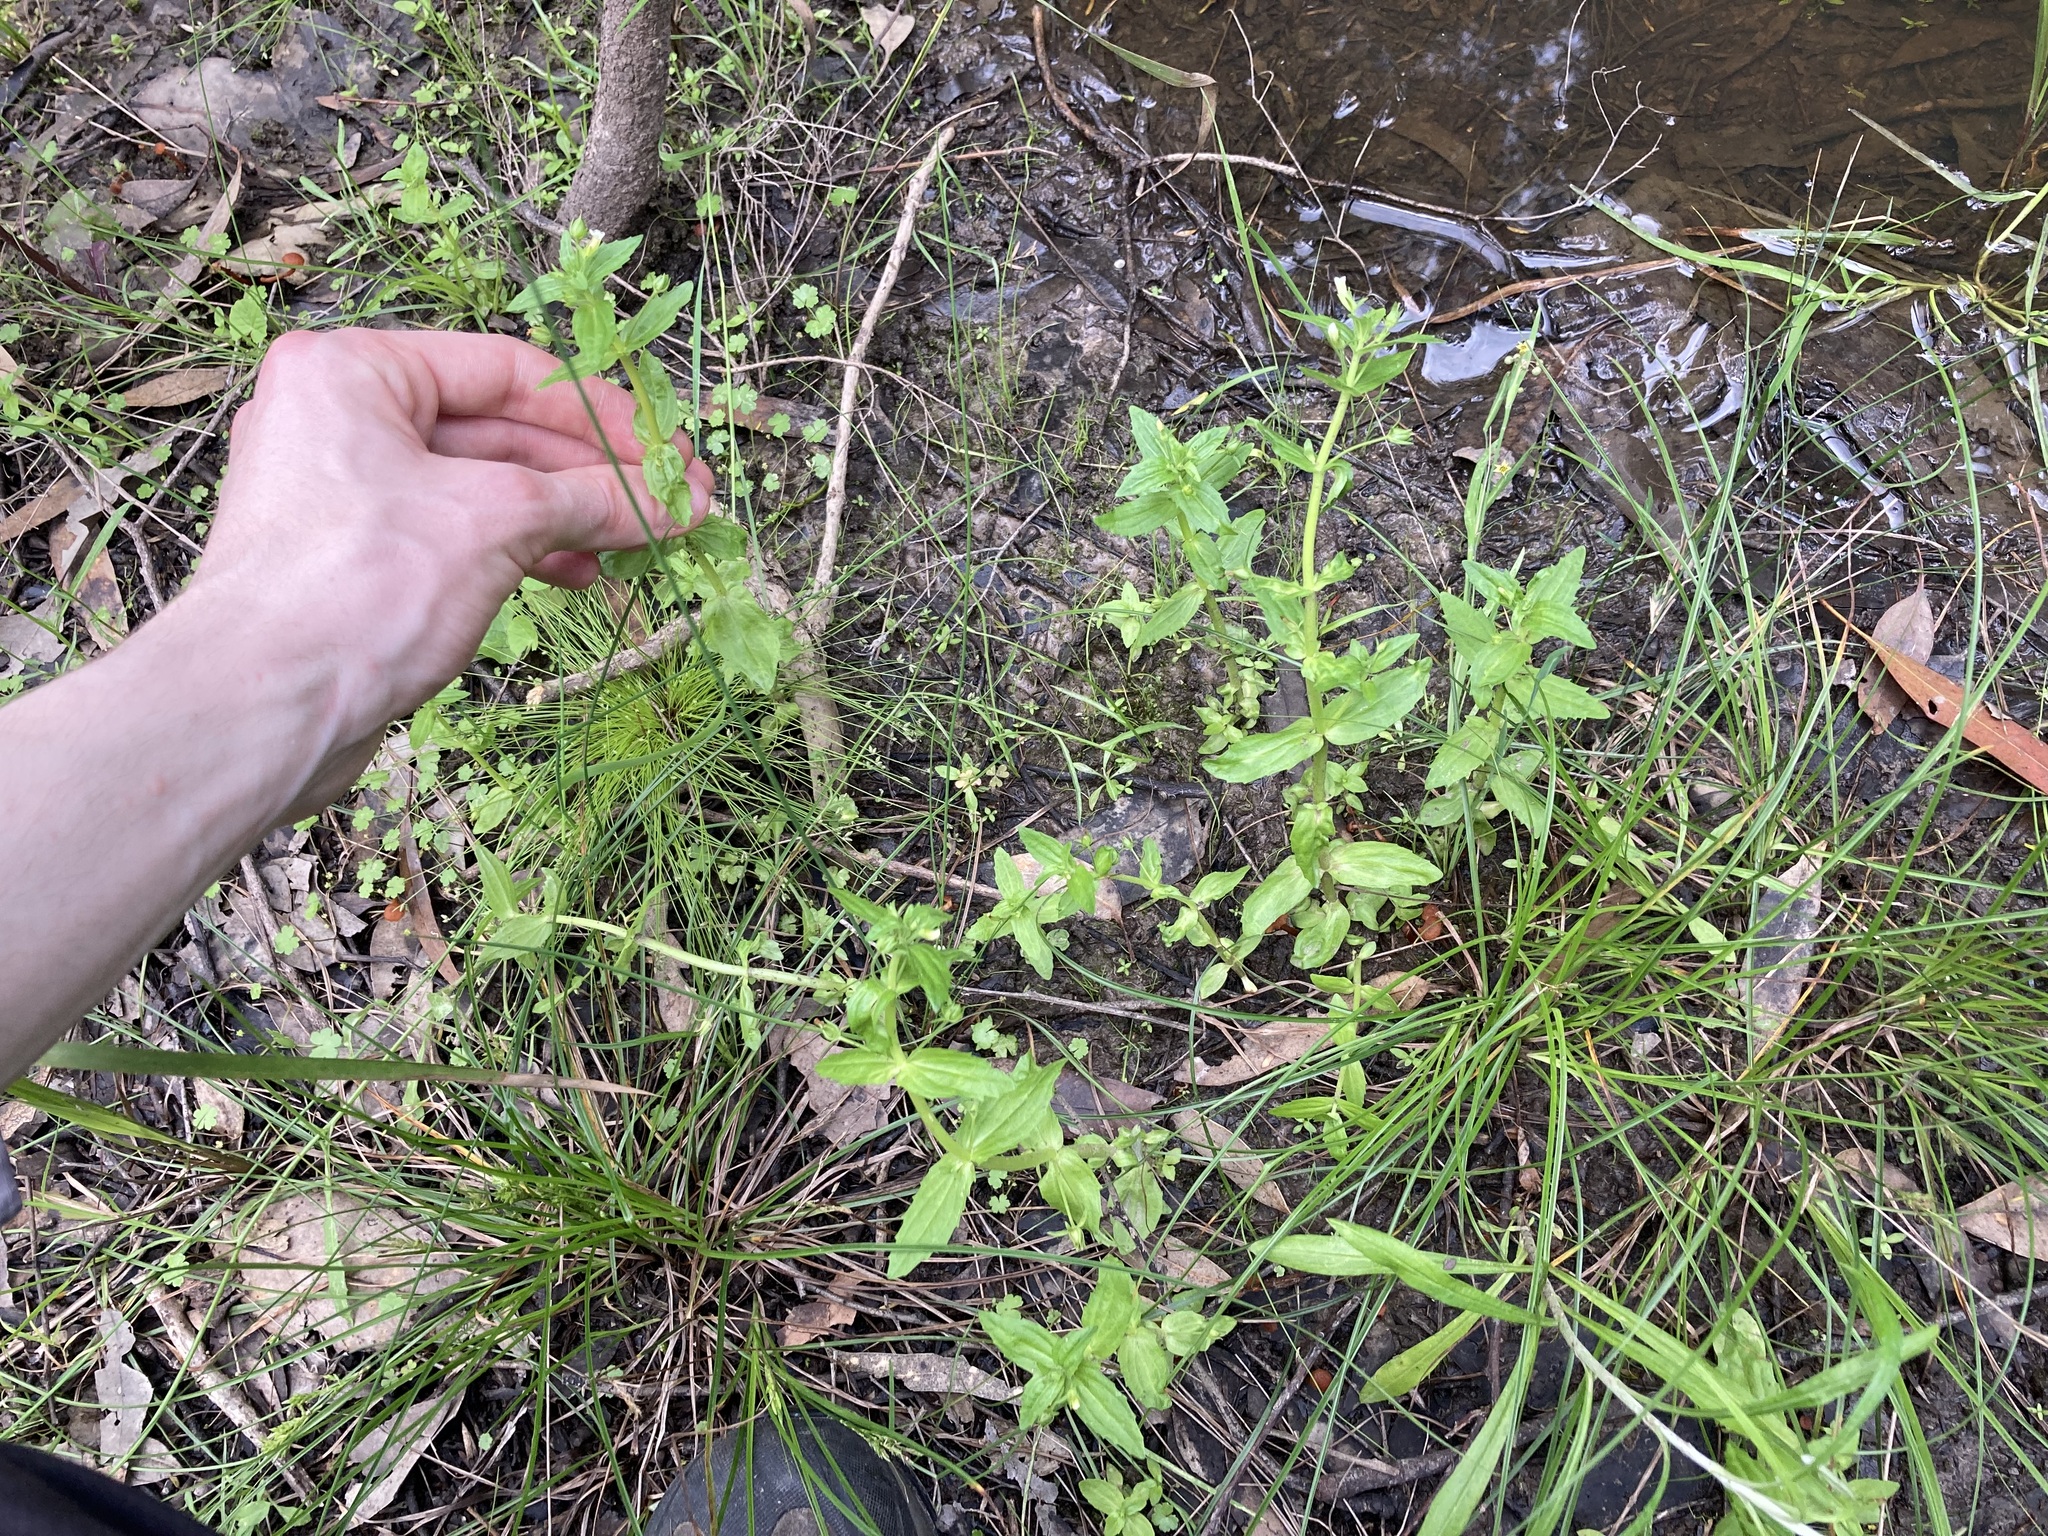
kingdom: Plantae
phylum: Tracheophyta
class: Magnoliopsida
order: Lamiales
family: Plantaginaceae
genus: Gratiola
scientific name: Gratiola pedunculata
